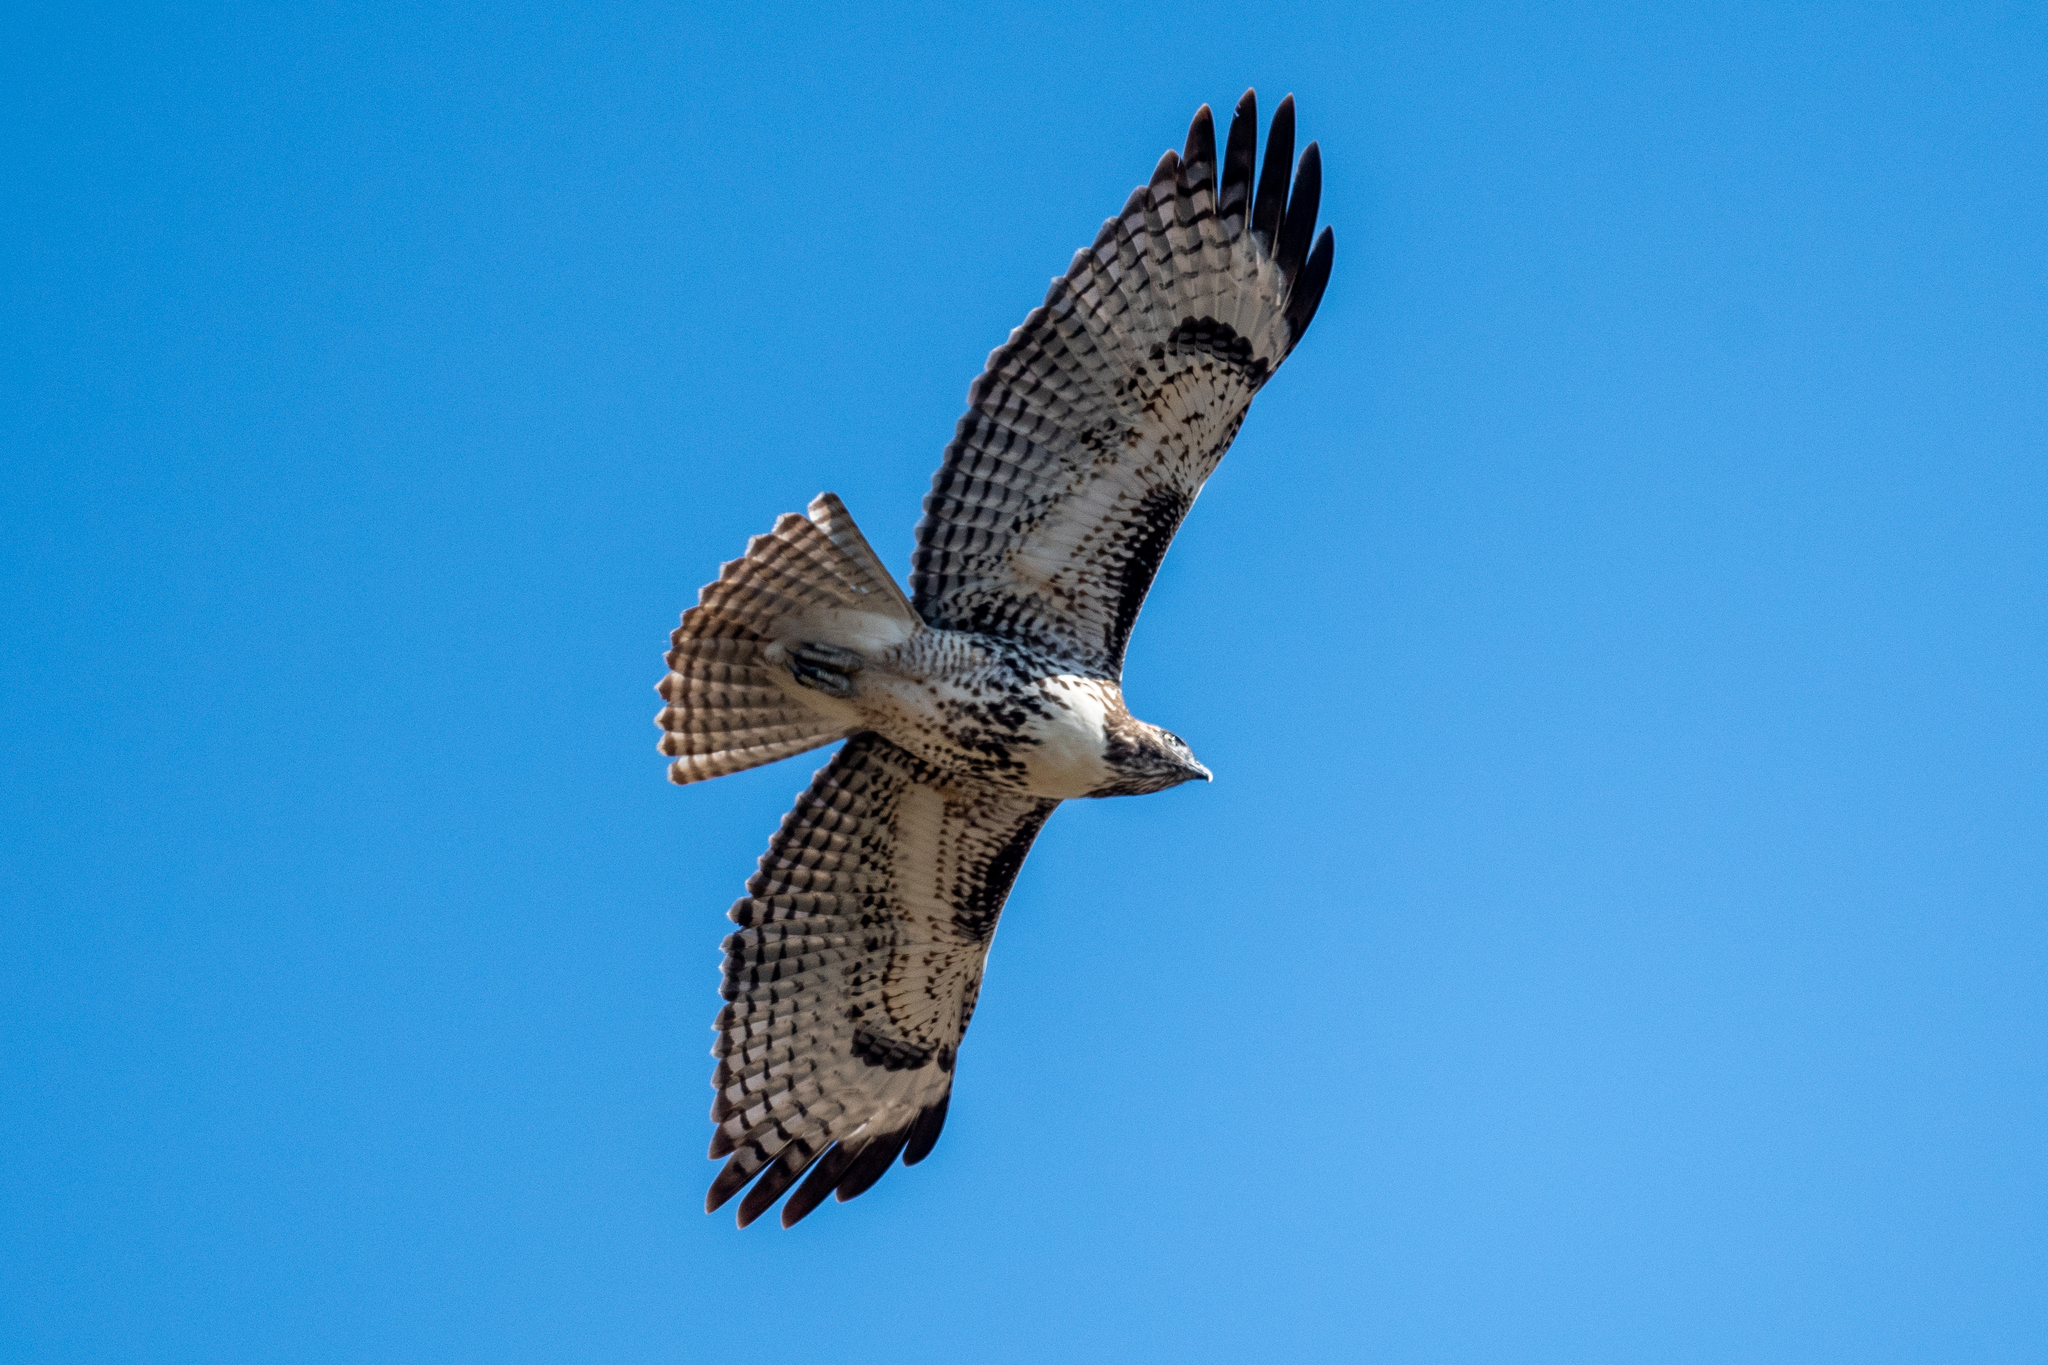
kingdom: Animalia
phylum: Chordata
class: Aves
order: Accipitriformes
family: Accipitridae
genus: Buteo
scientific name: Buteo jamaicensis
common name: Red-tailed hawk
